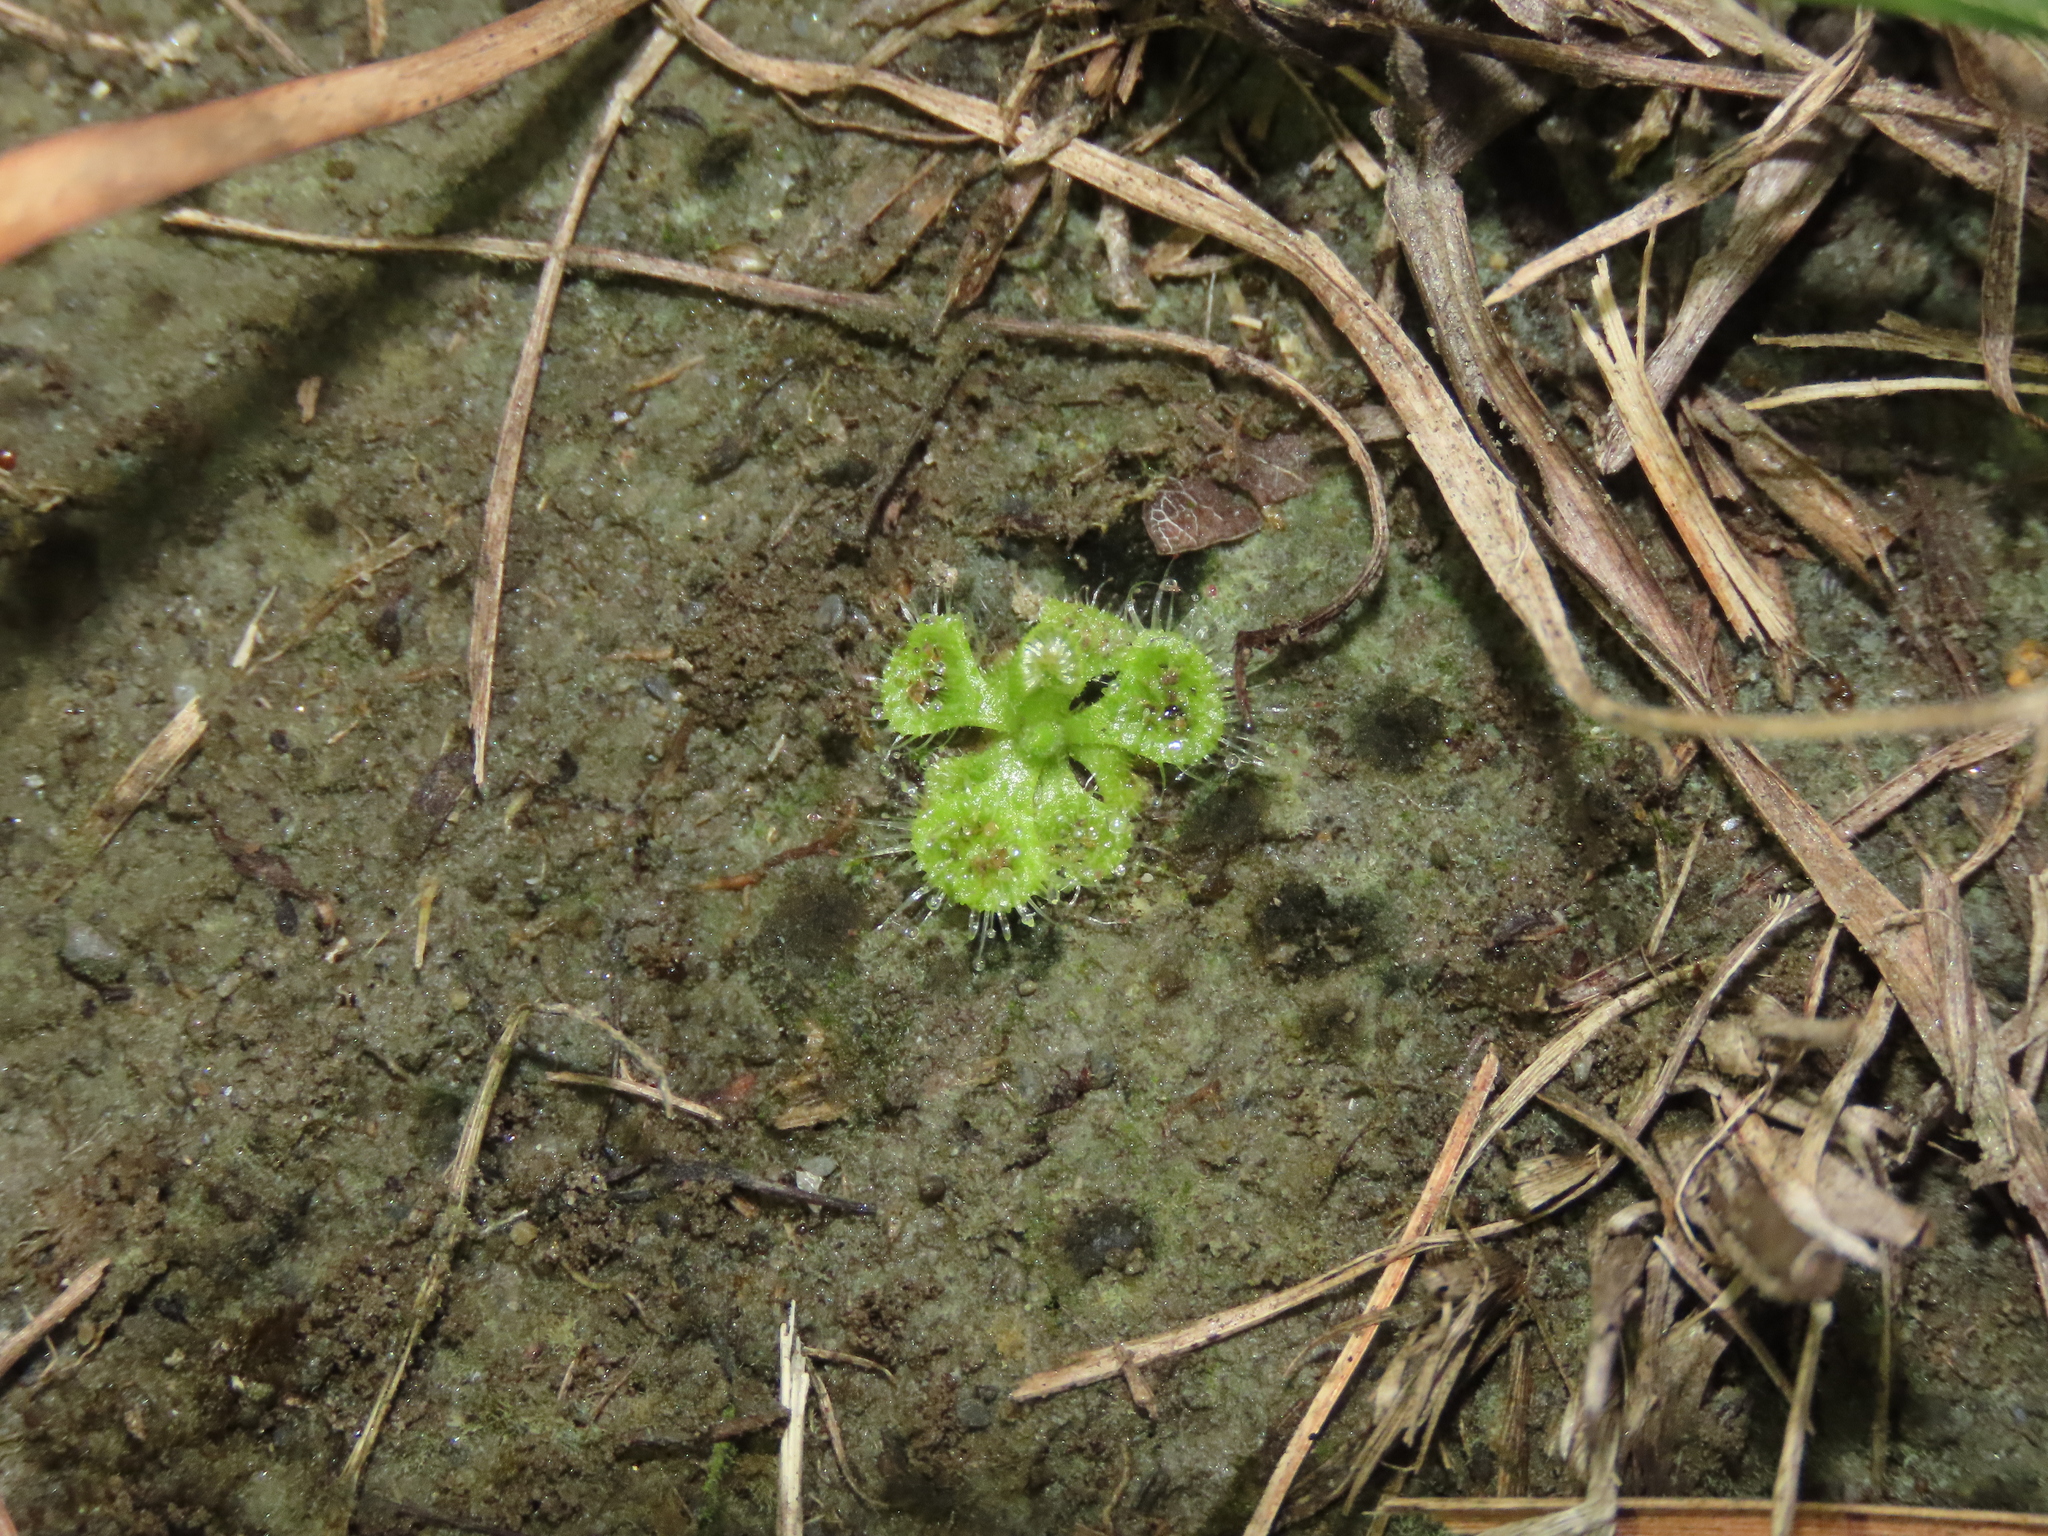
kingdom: Plantae
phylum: Tracheophyta
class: Magnoliopsida
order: Caryophyllales
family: Droseraceae
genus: Drosera
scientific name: Drosera spatulata
